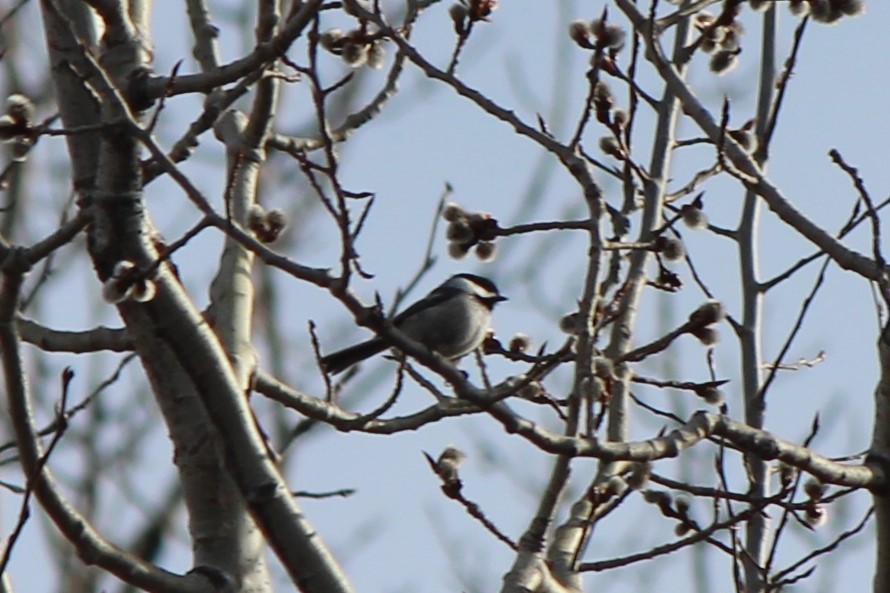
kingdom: Animalia
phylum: Chordata
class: Aves
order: Passeriformes
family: Paridae
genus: Poecile
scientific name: Poecile atricapillus
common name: Black-capped chickadee
